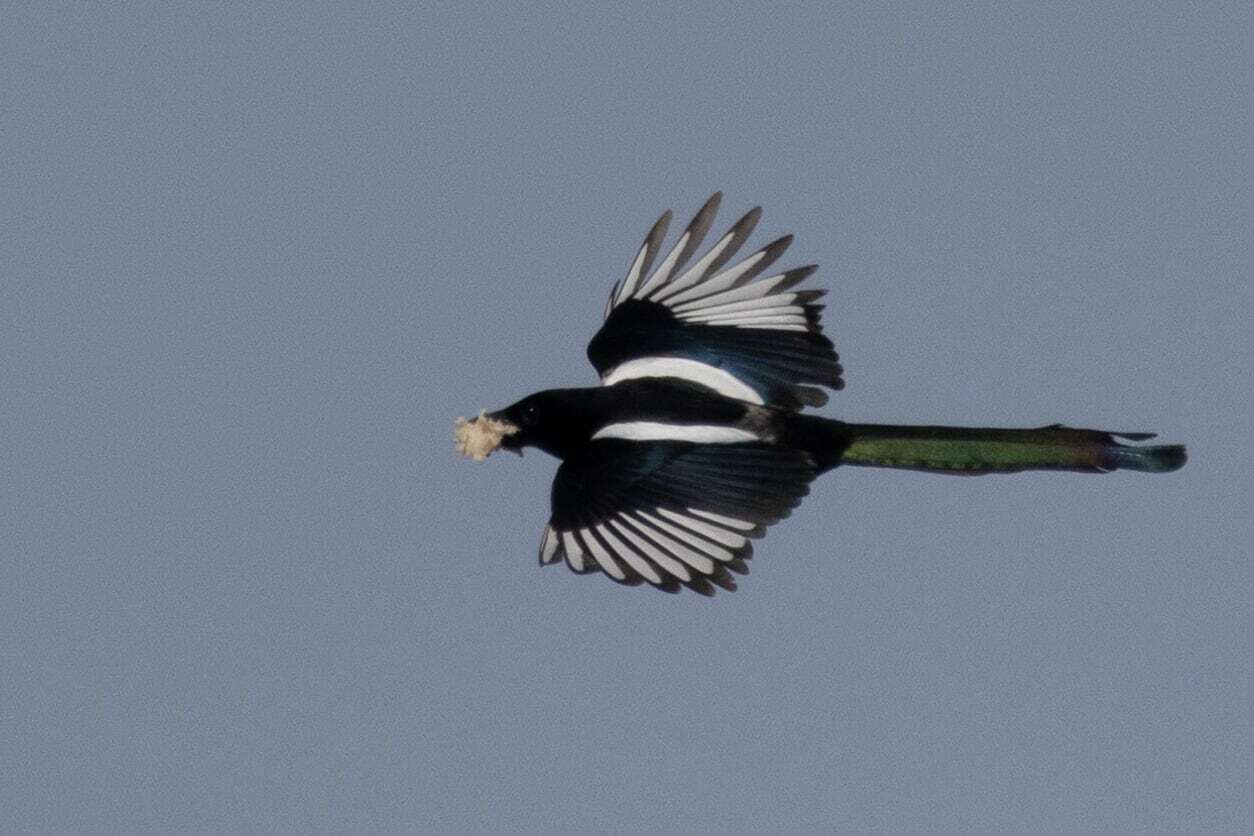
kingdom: Animalia
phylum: Chordata
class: Aves
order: Passeriformes
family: Corvidae
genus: Pica
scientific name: Pica pica
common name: Eurasian magpie
